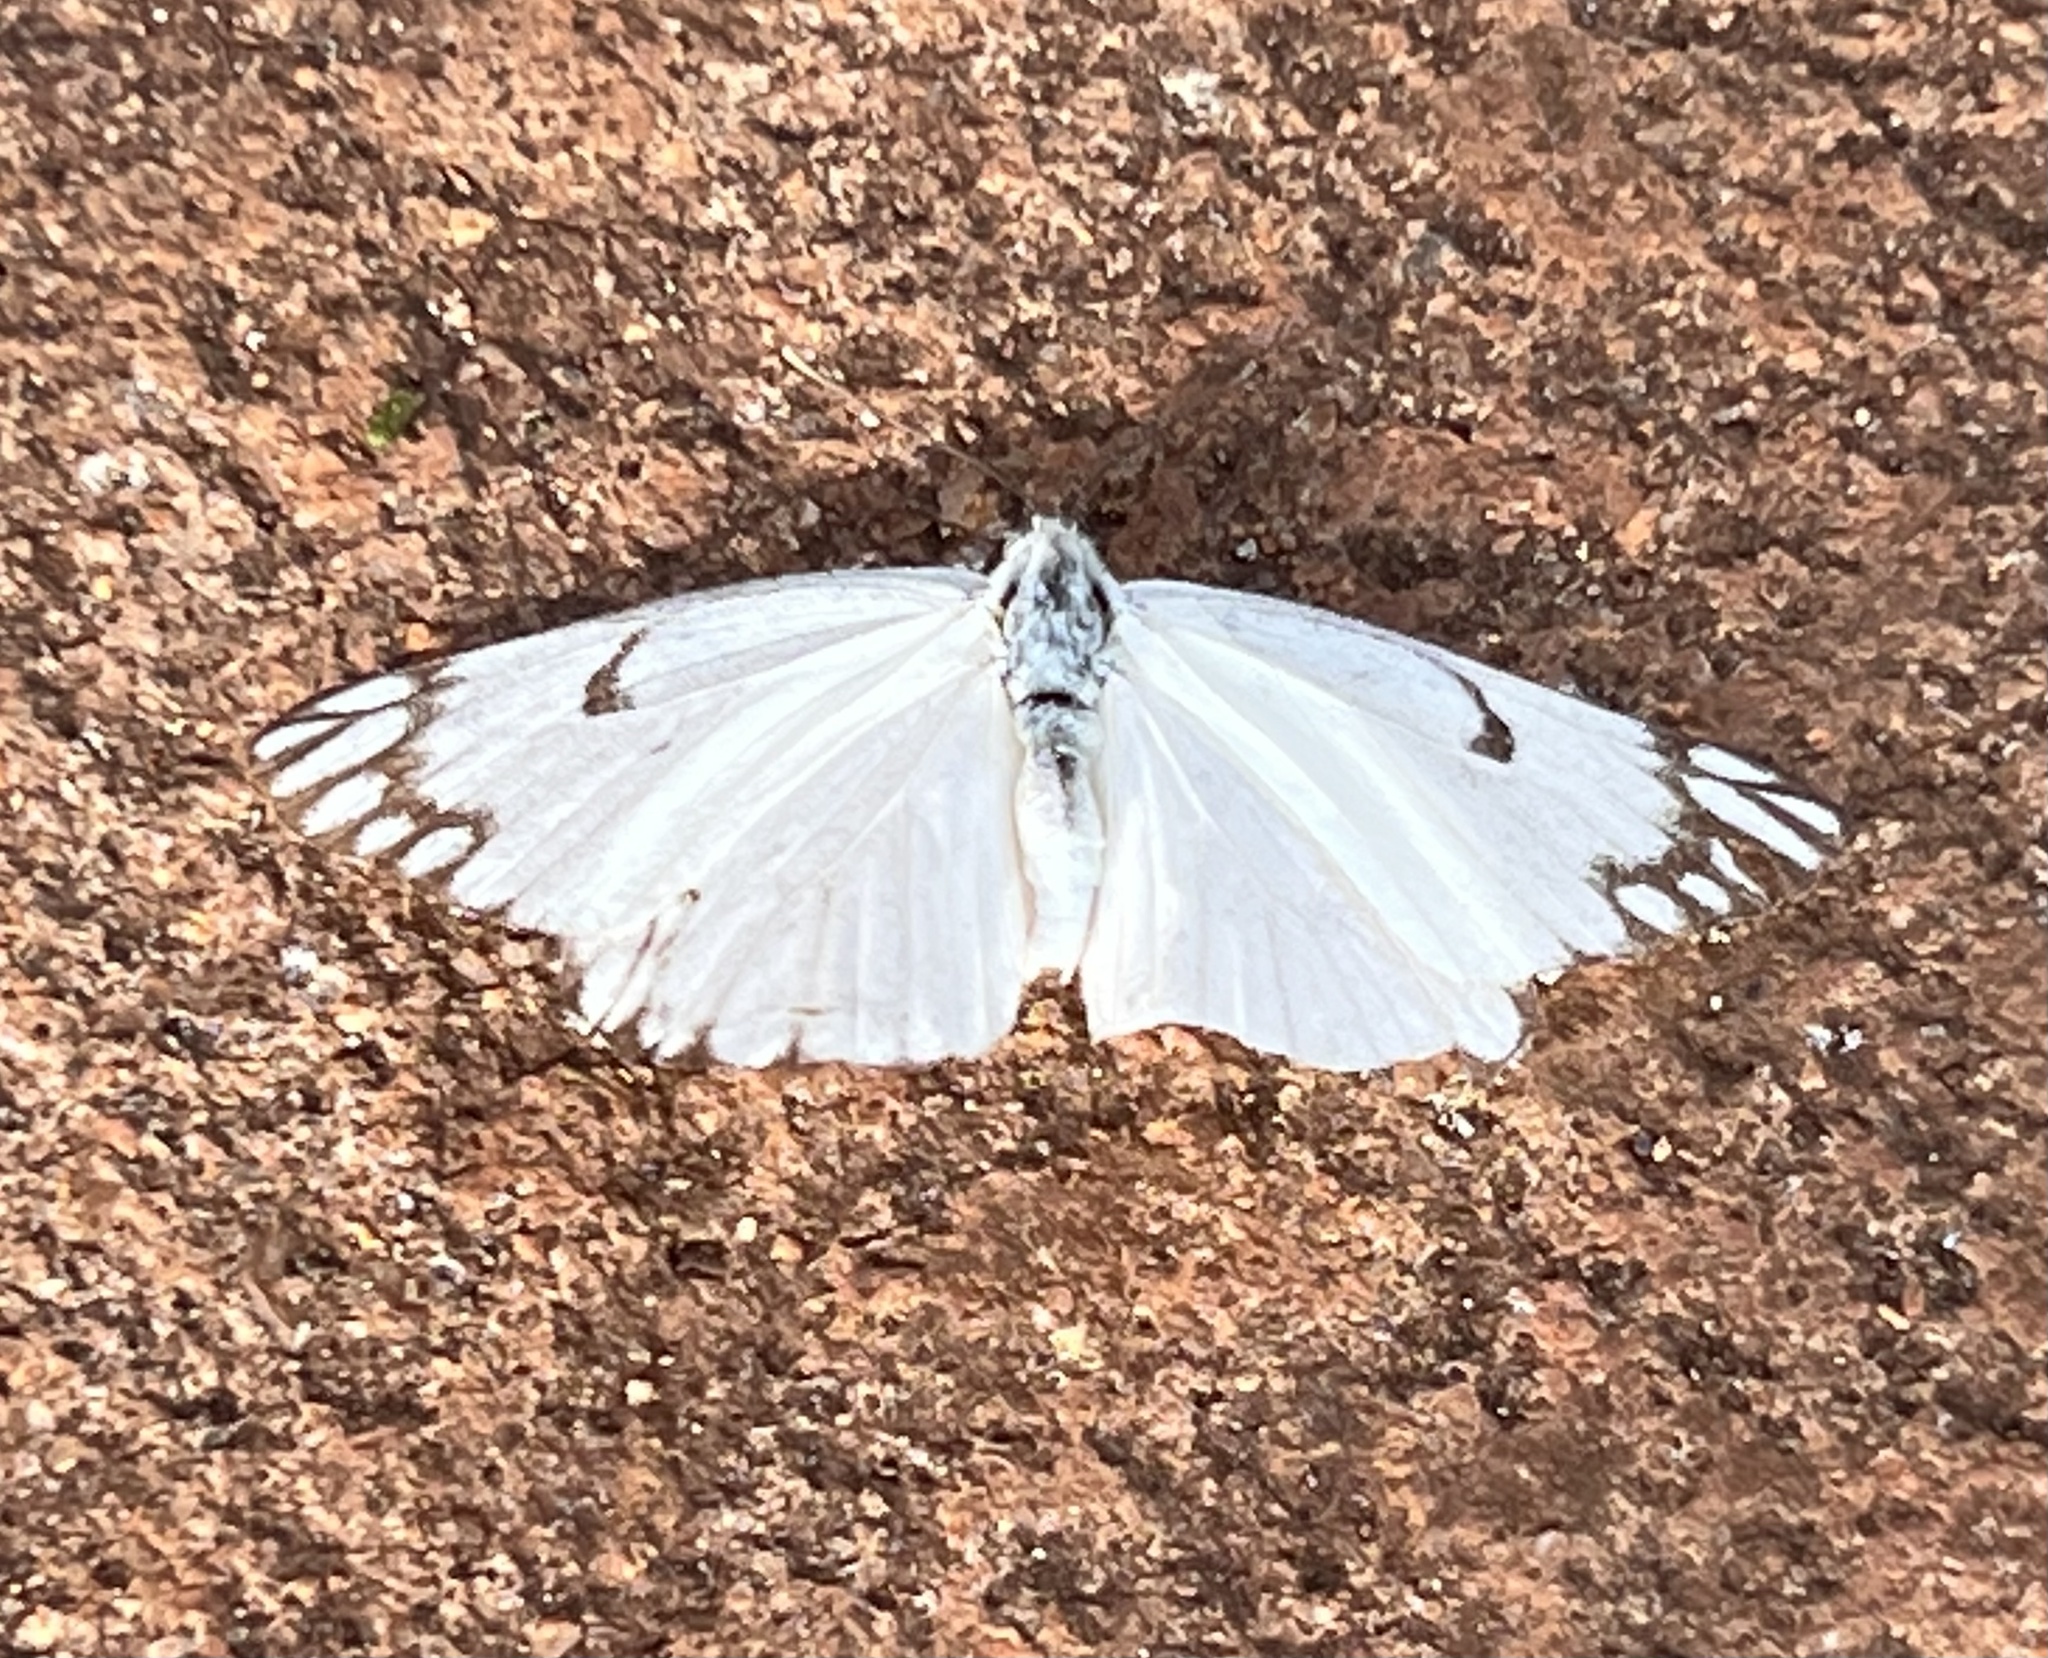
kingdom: Animalia
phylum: Arthropoda
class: Insecta
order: Lepidoptera
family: Pieridae
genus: Belenois
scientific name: Belenois aurota
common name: Brown-veined white
